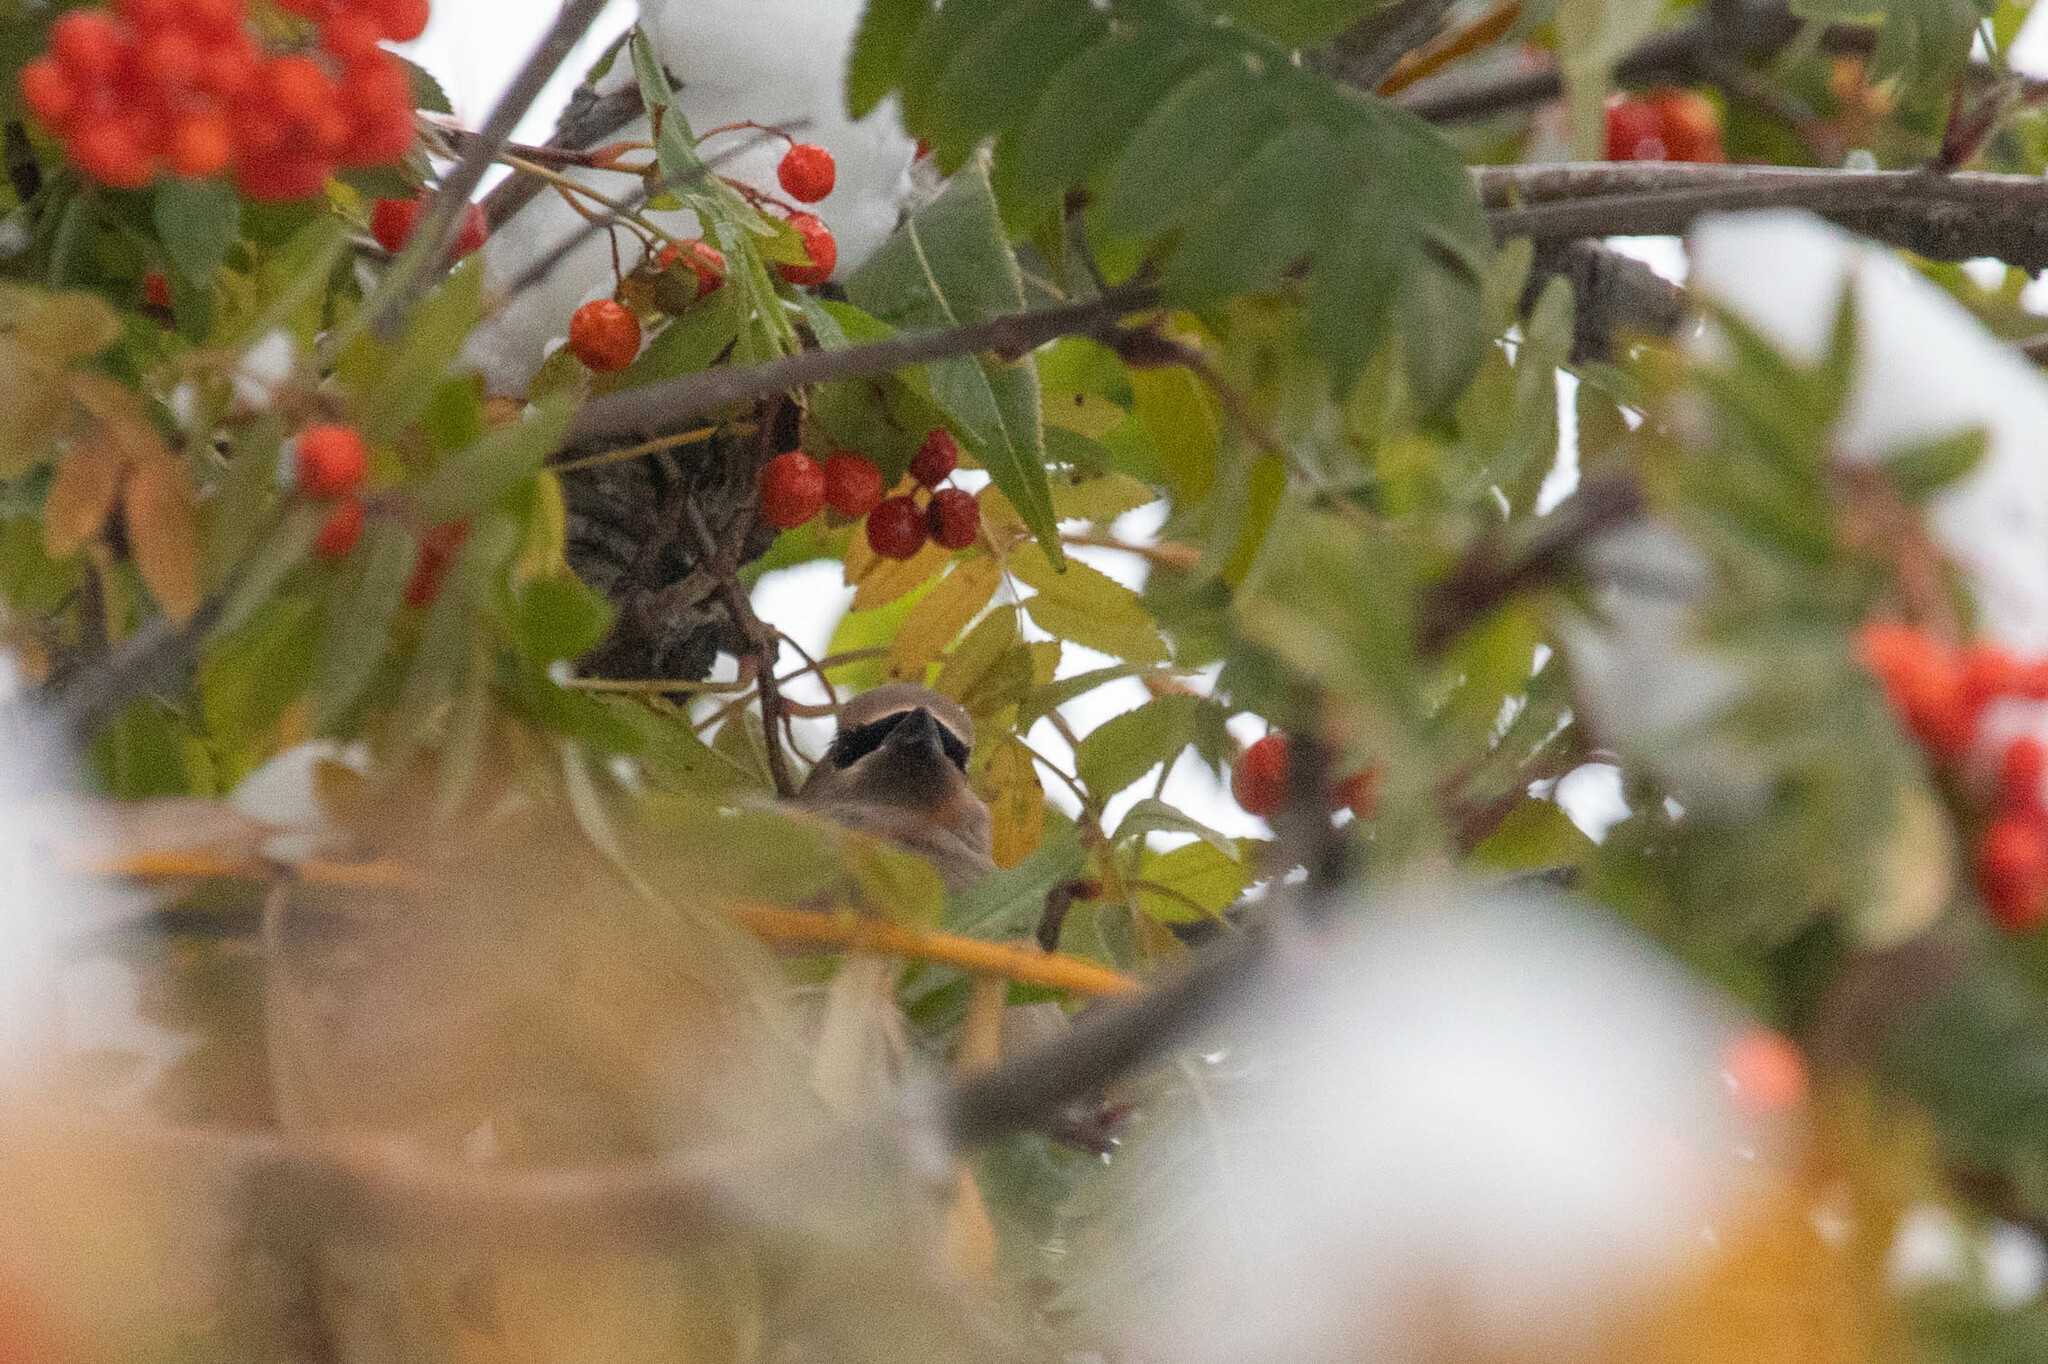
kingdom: Animalia
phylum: Chordata
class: Aves
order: Passeriformes
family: Bombycillidae
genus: Bombycilla
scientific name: Bombycilla cedrorum
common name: Cedar waxwing
